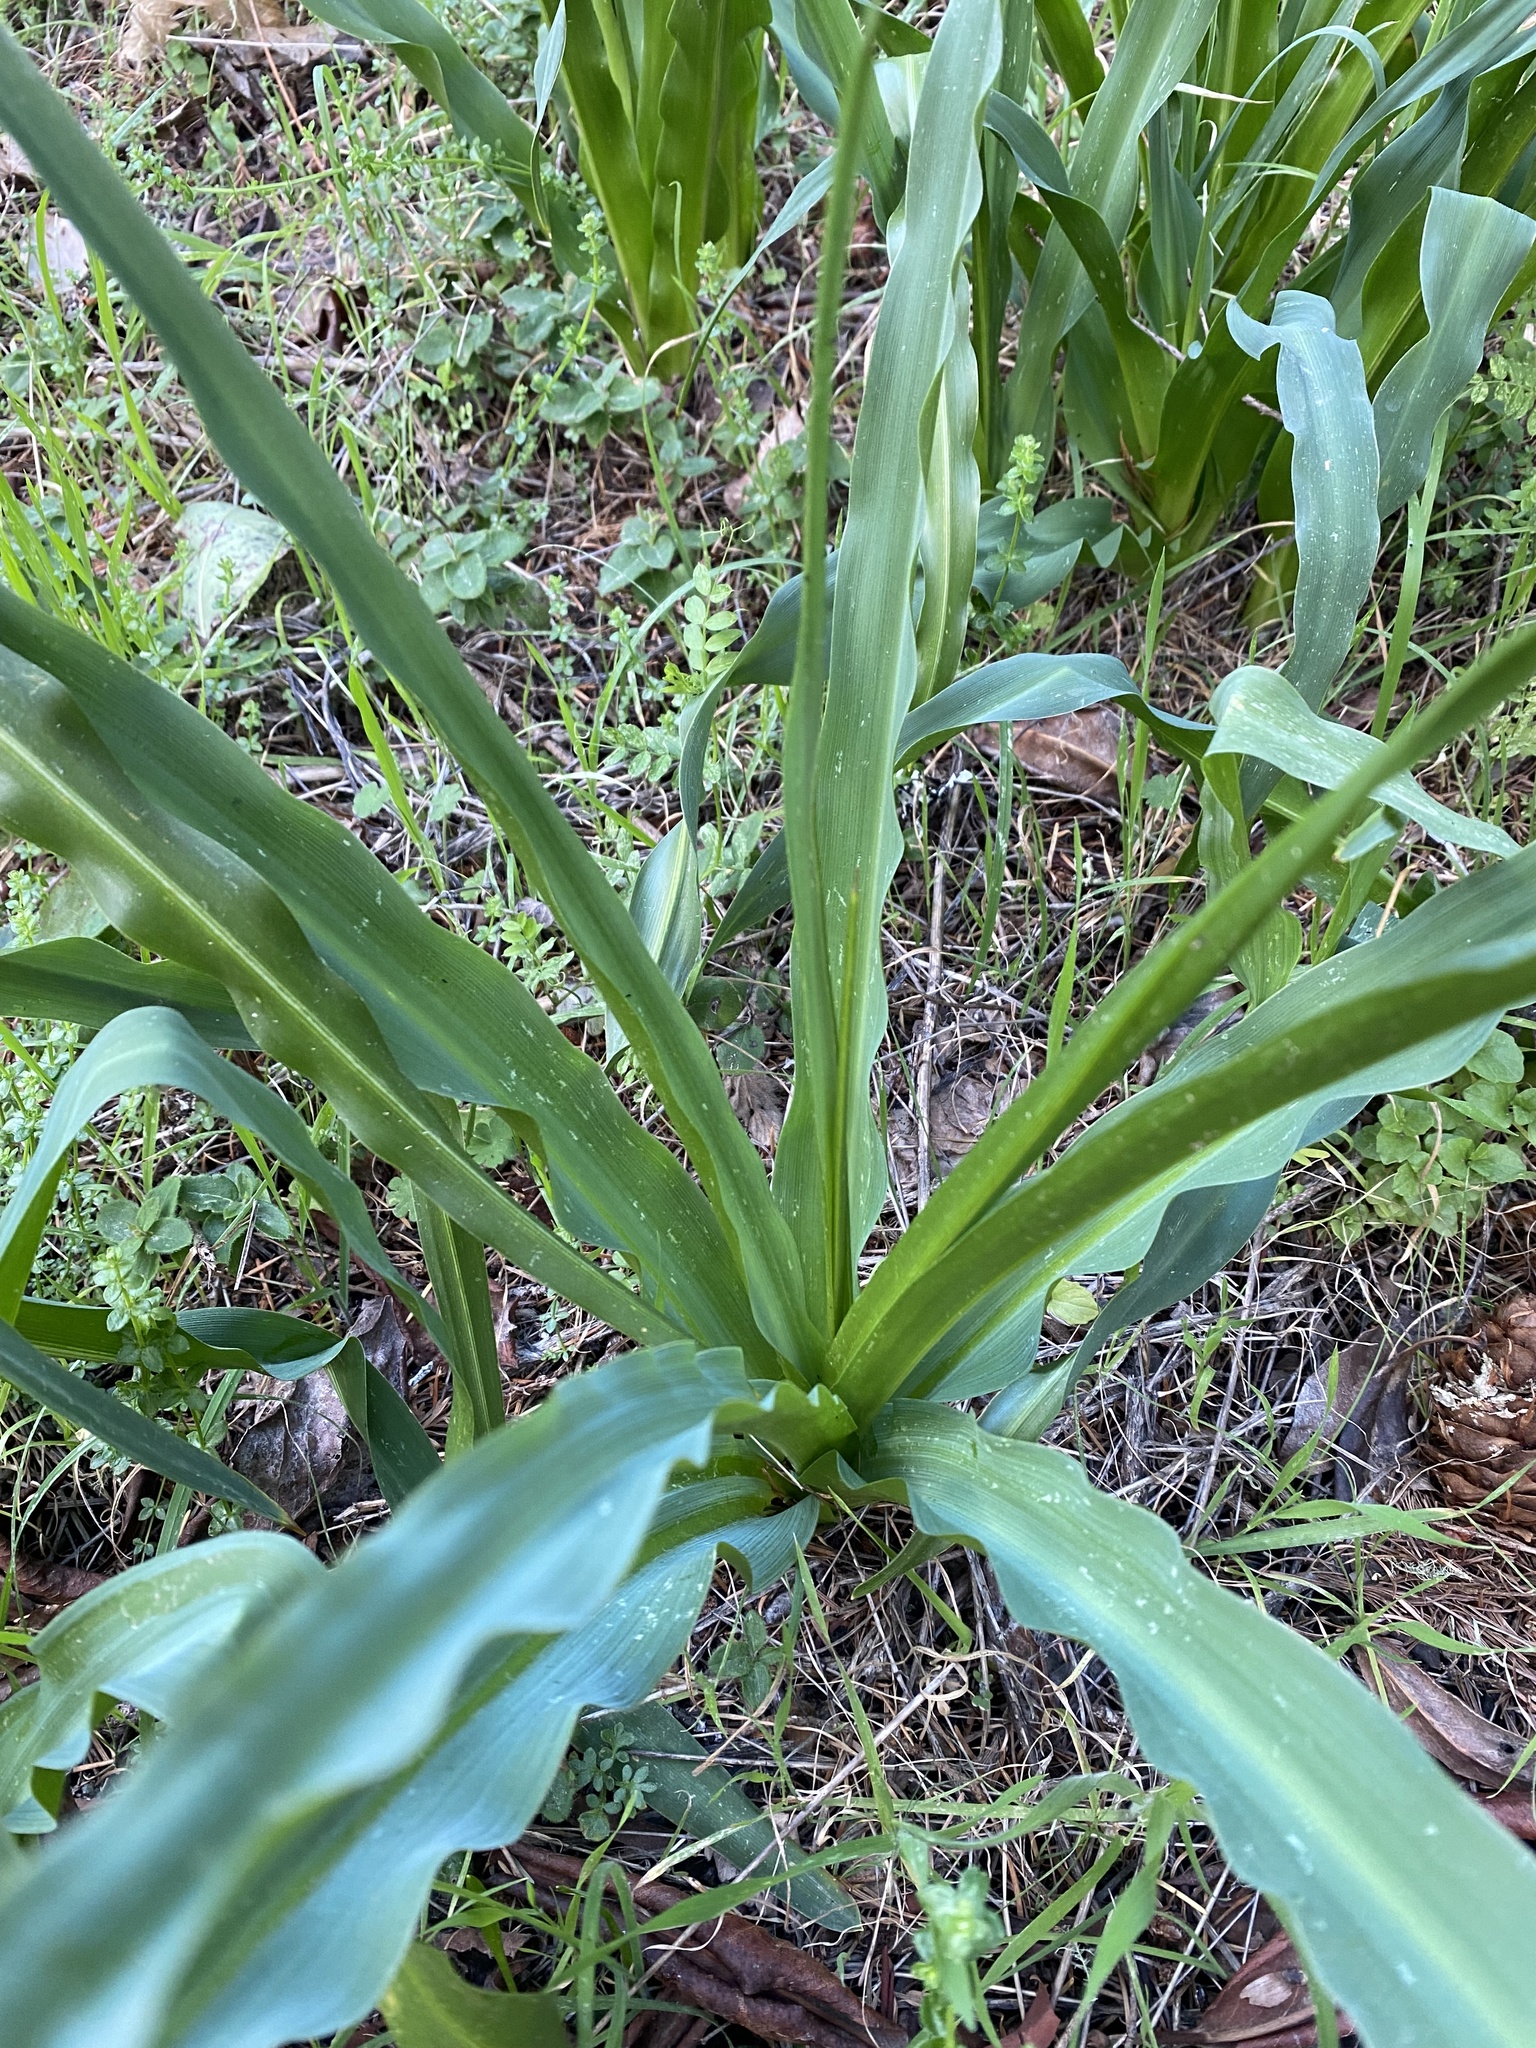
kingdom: Plantae
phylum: Tracheophyta
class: Liliopsida
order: Asparagales
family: Asparagaceae
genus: Chlorogalum
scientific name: Chlorogalum pomeridianum
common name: Amole
